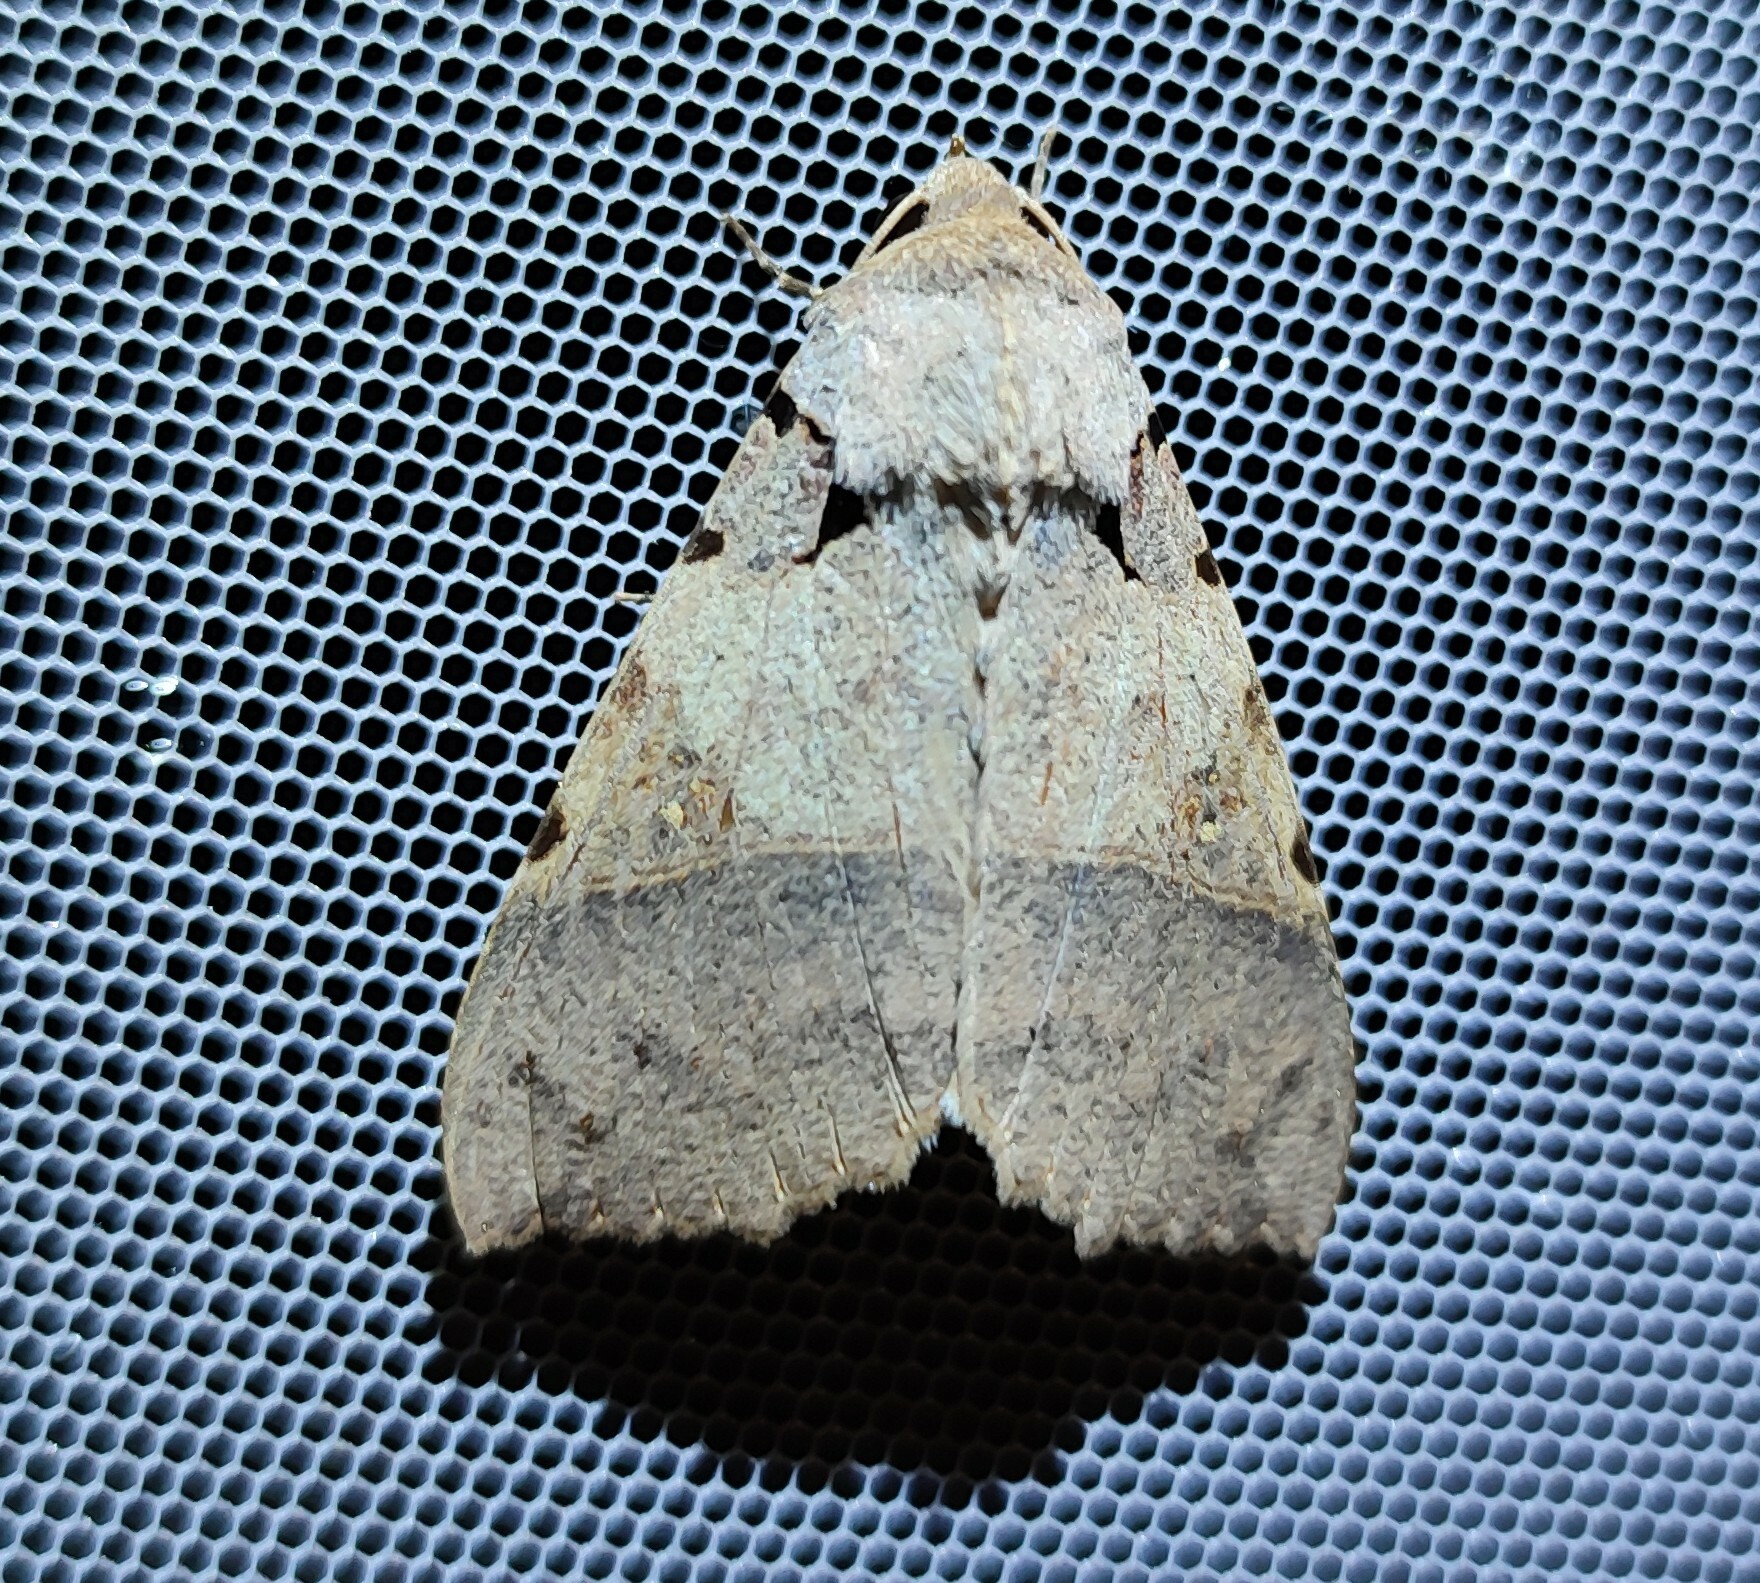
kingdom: Animalia
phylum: Arthropoda
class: Insecta
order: Lepidoptera
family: Erebidae
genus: Serrodes
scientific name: Serrodes campana
